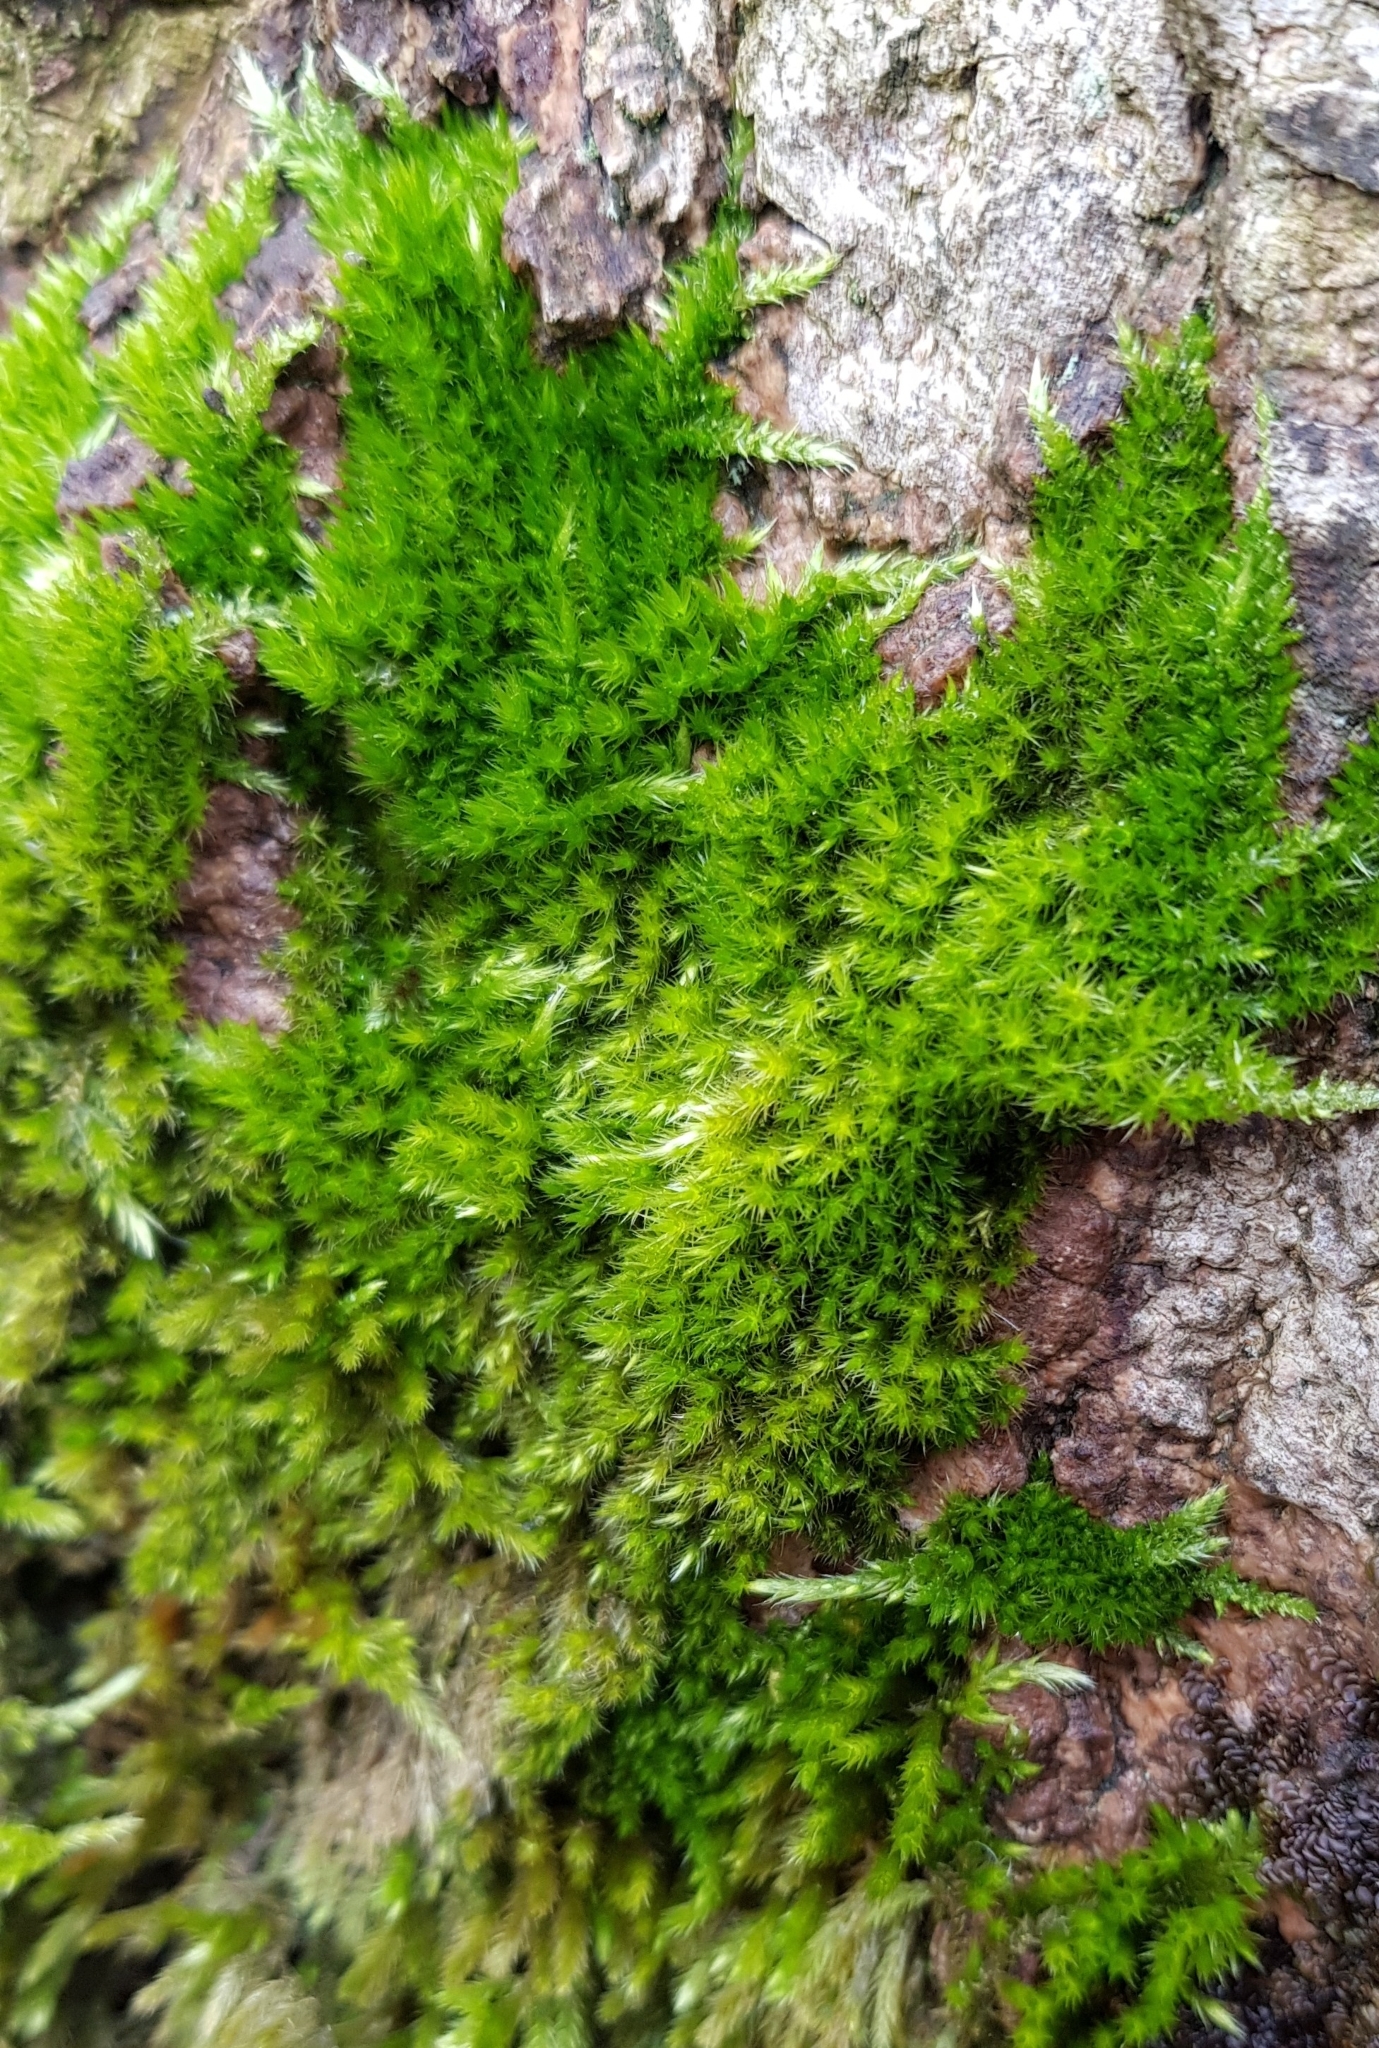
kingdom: Plantae
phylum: Bryophyta
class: Bryopsida
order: Hypnales
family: Brachytheciaceae
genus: Homalothecium
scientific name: Homalothecium sericeum
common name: Silky wall feather-moss
